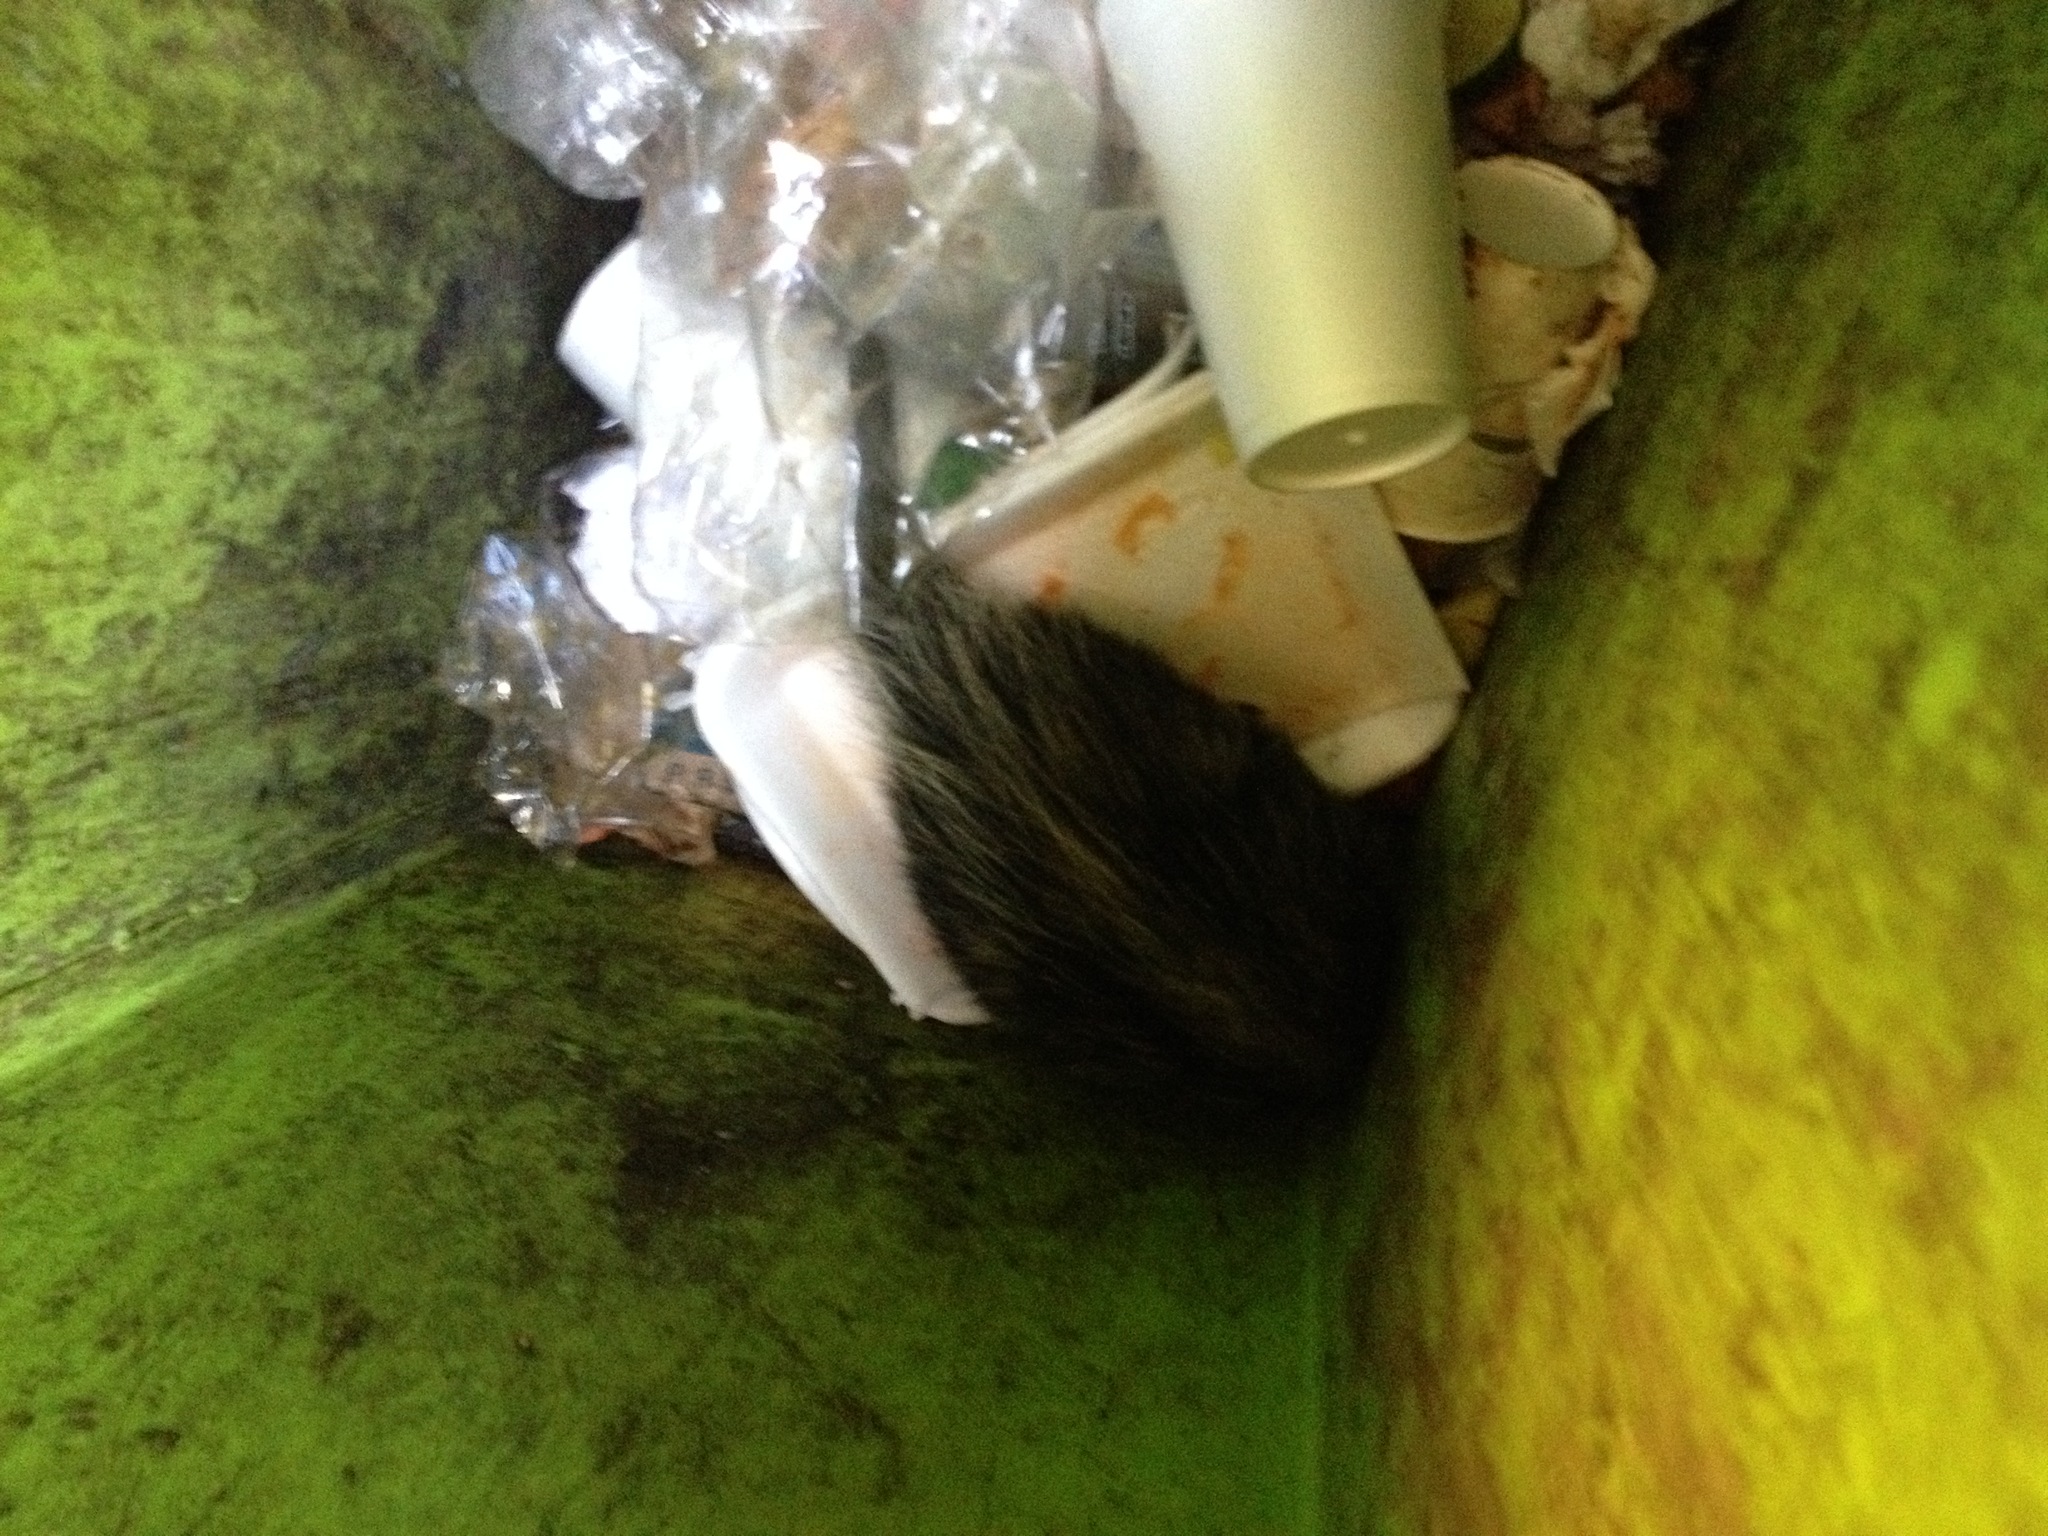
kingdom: Animalia
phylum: Chordata
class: Mammalia
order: Didelphimorphia
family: Didelphidae
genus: Didelphis
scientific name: Didelphis virginiana
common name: Virginia opossum
